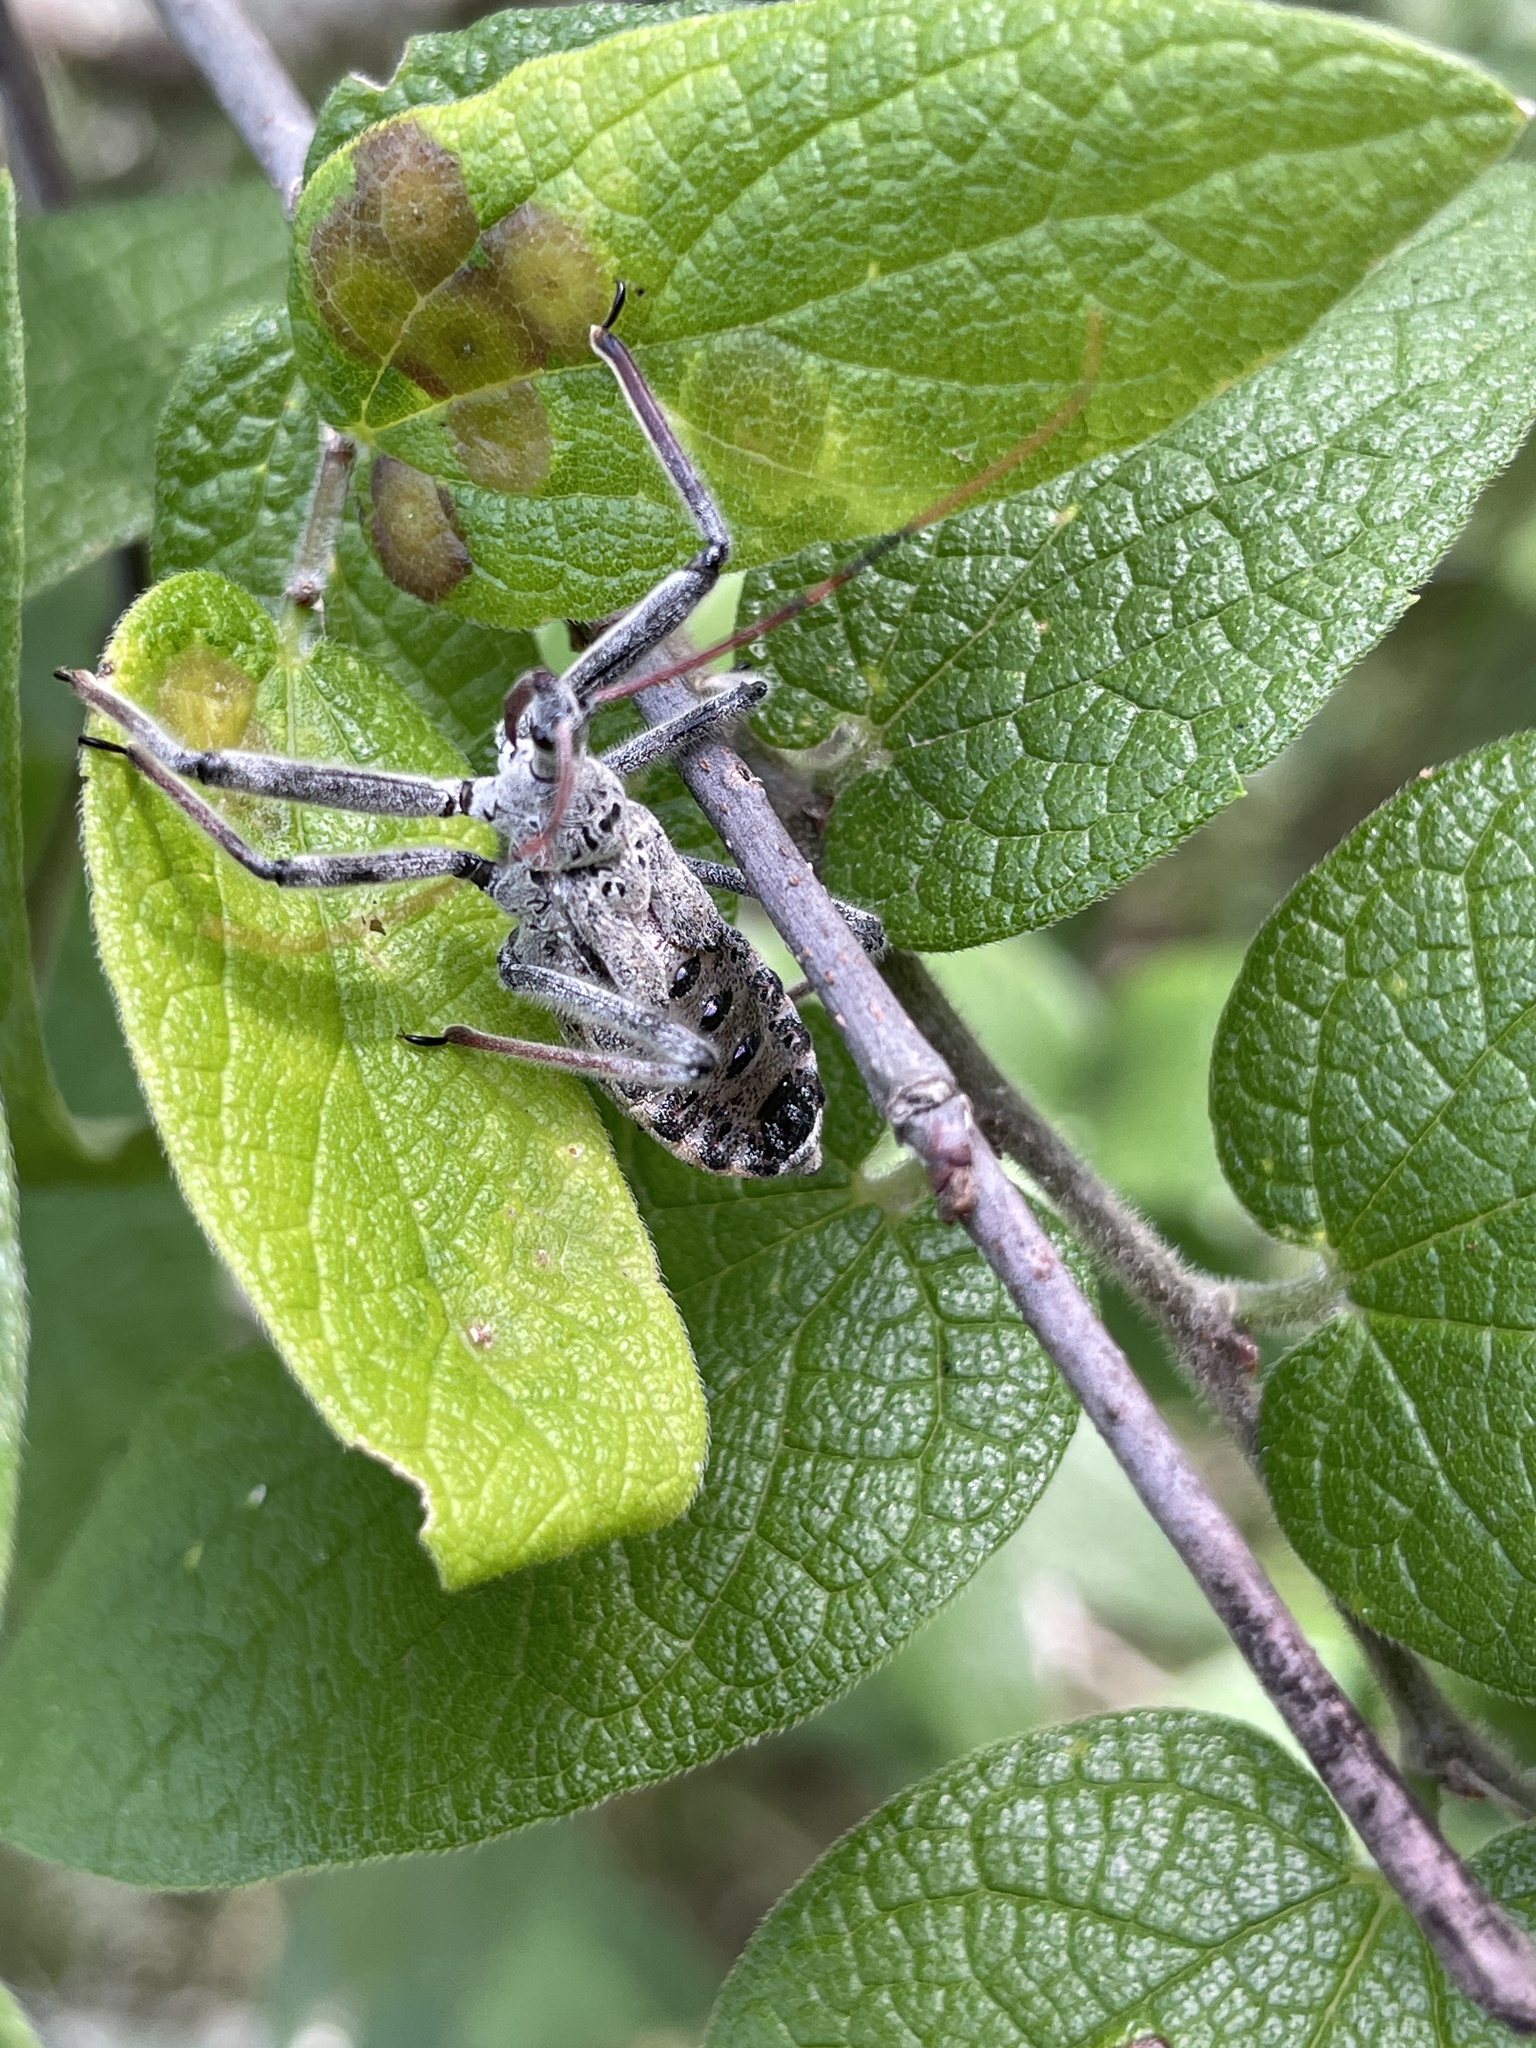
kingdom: Animalia
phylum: Arthropoda
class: Insecta
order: Hemiptera
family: Reduviidae
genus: Arilus
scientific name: Arilus cristatus
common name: North american wheel bug
